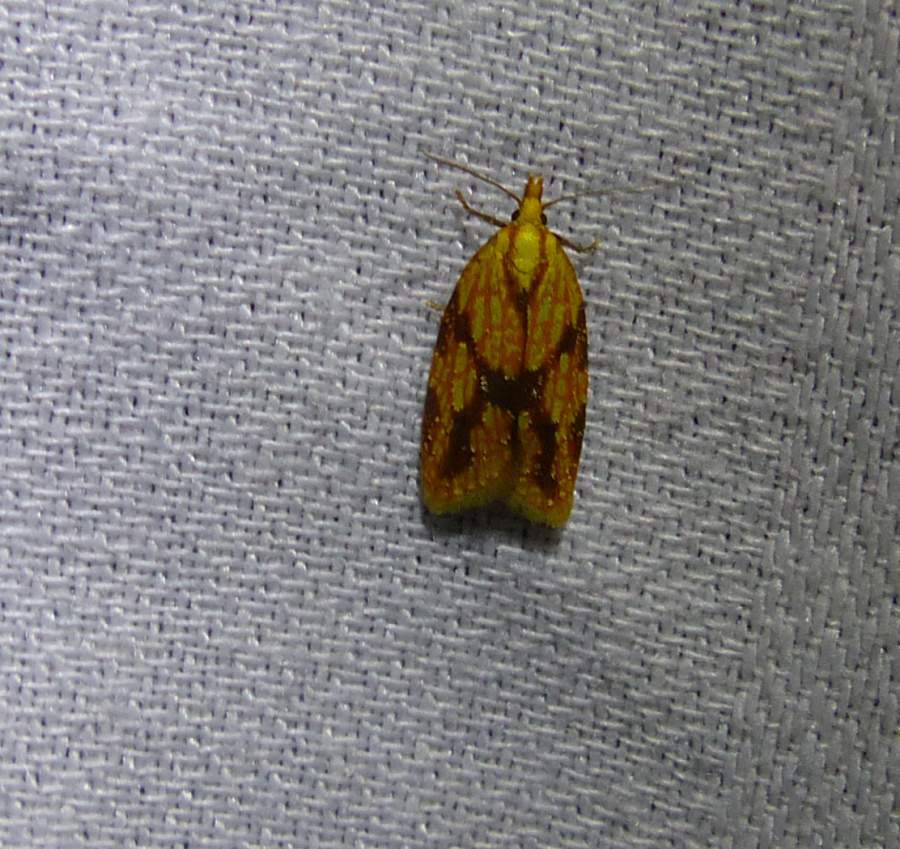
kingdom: Animalia
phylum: Arthropoda
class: Insecta
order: Lepidoptera
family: Tortricidae
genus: Sparganothis
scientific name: Sparganothis sulfureana
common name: Sparganothis fruitworm moth
